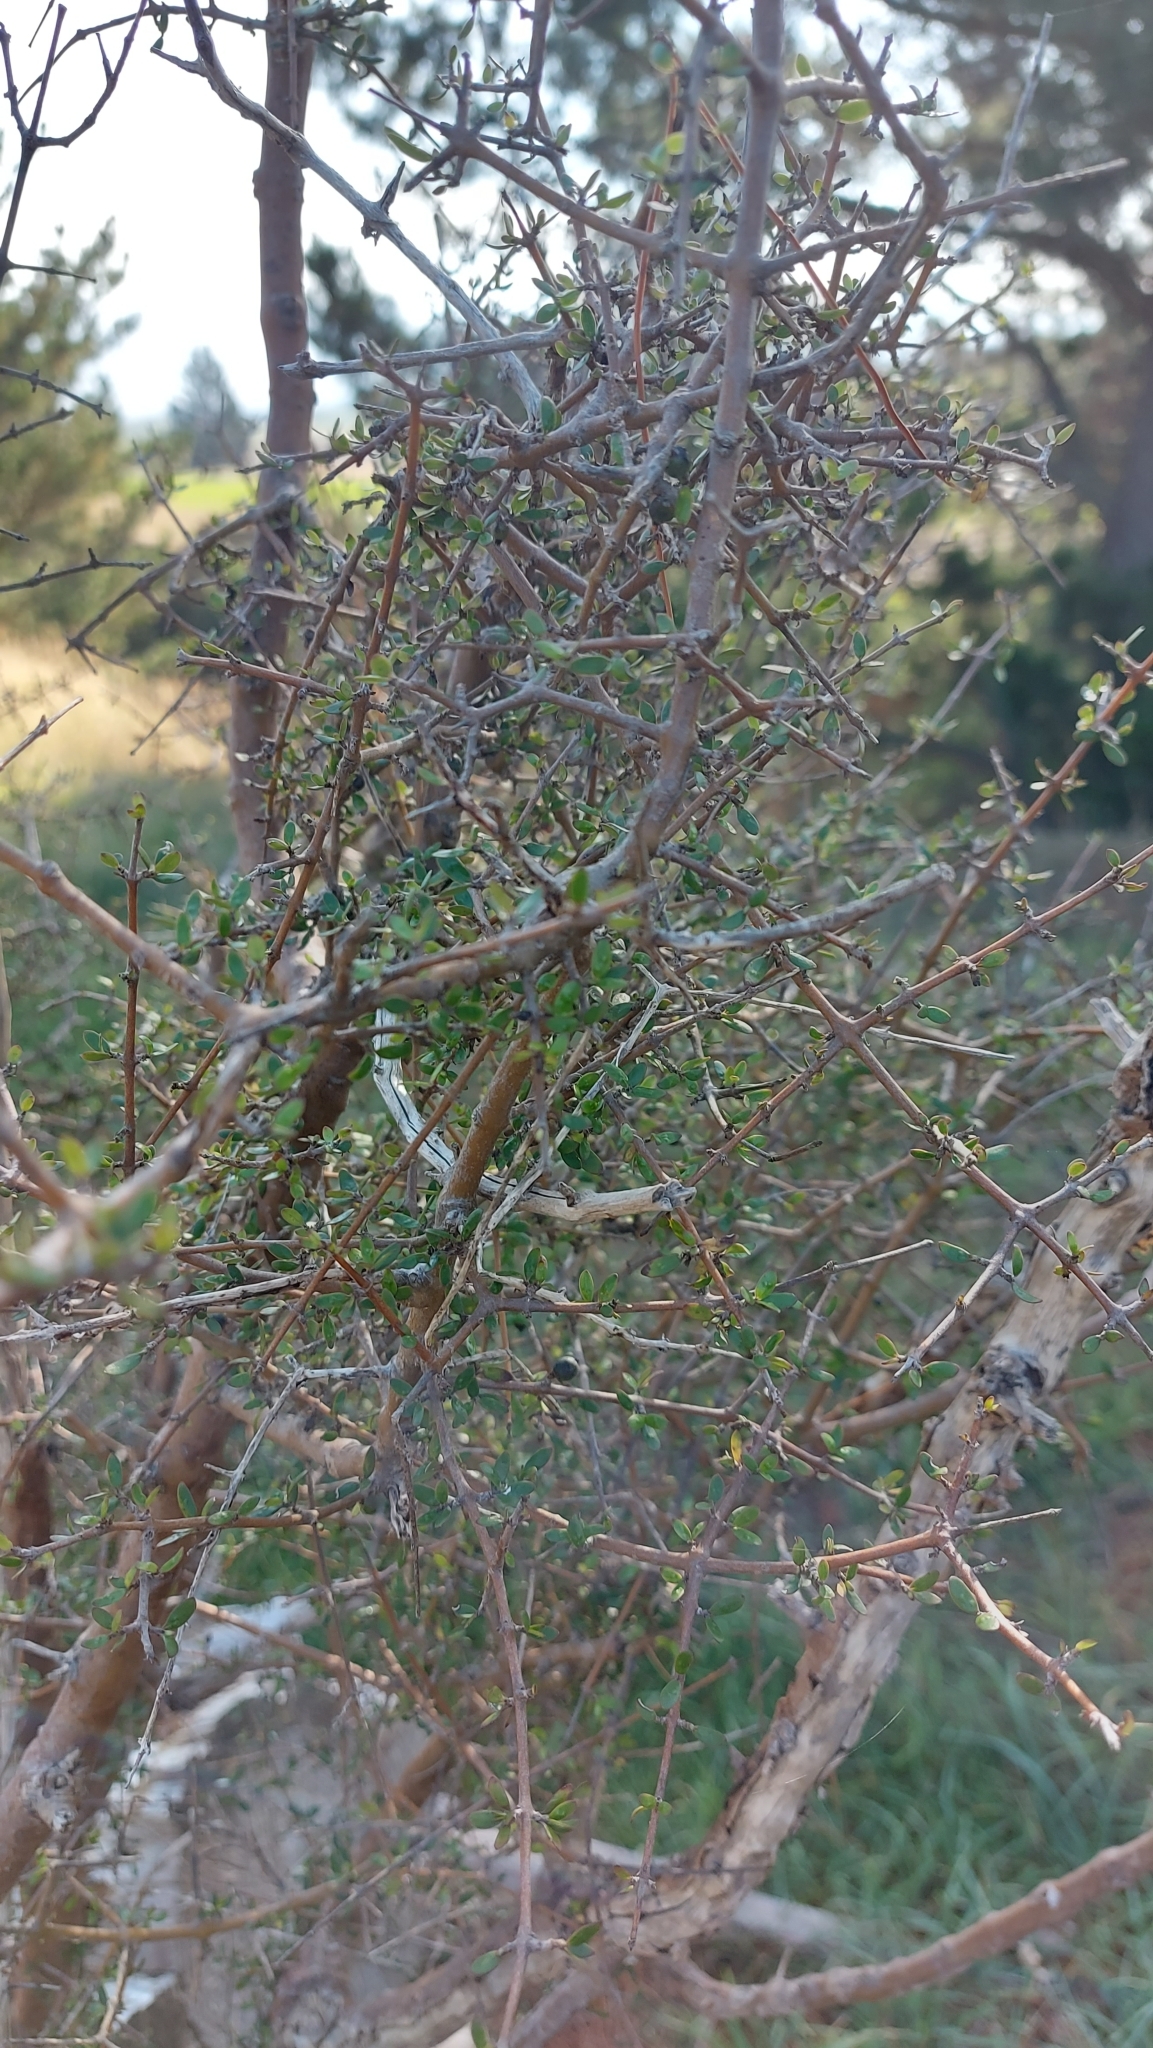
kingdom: Plantae
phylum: Tracheophyta
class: Magnoliopsida
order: Gentianales
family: Rubiaceae
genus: Coprosma
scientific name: Coprosma propinqua
